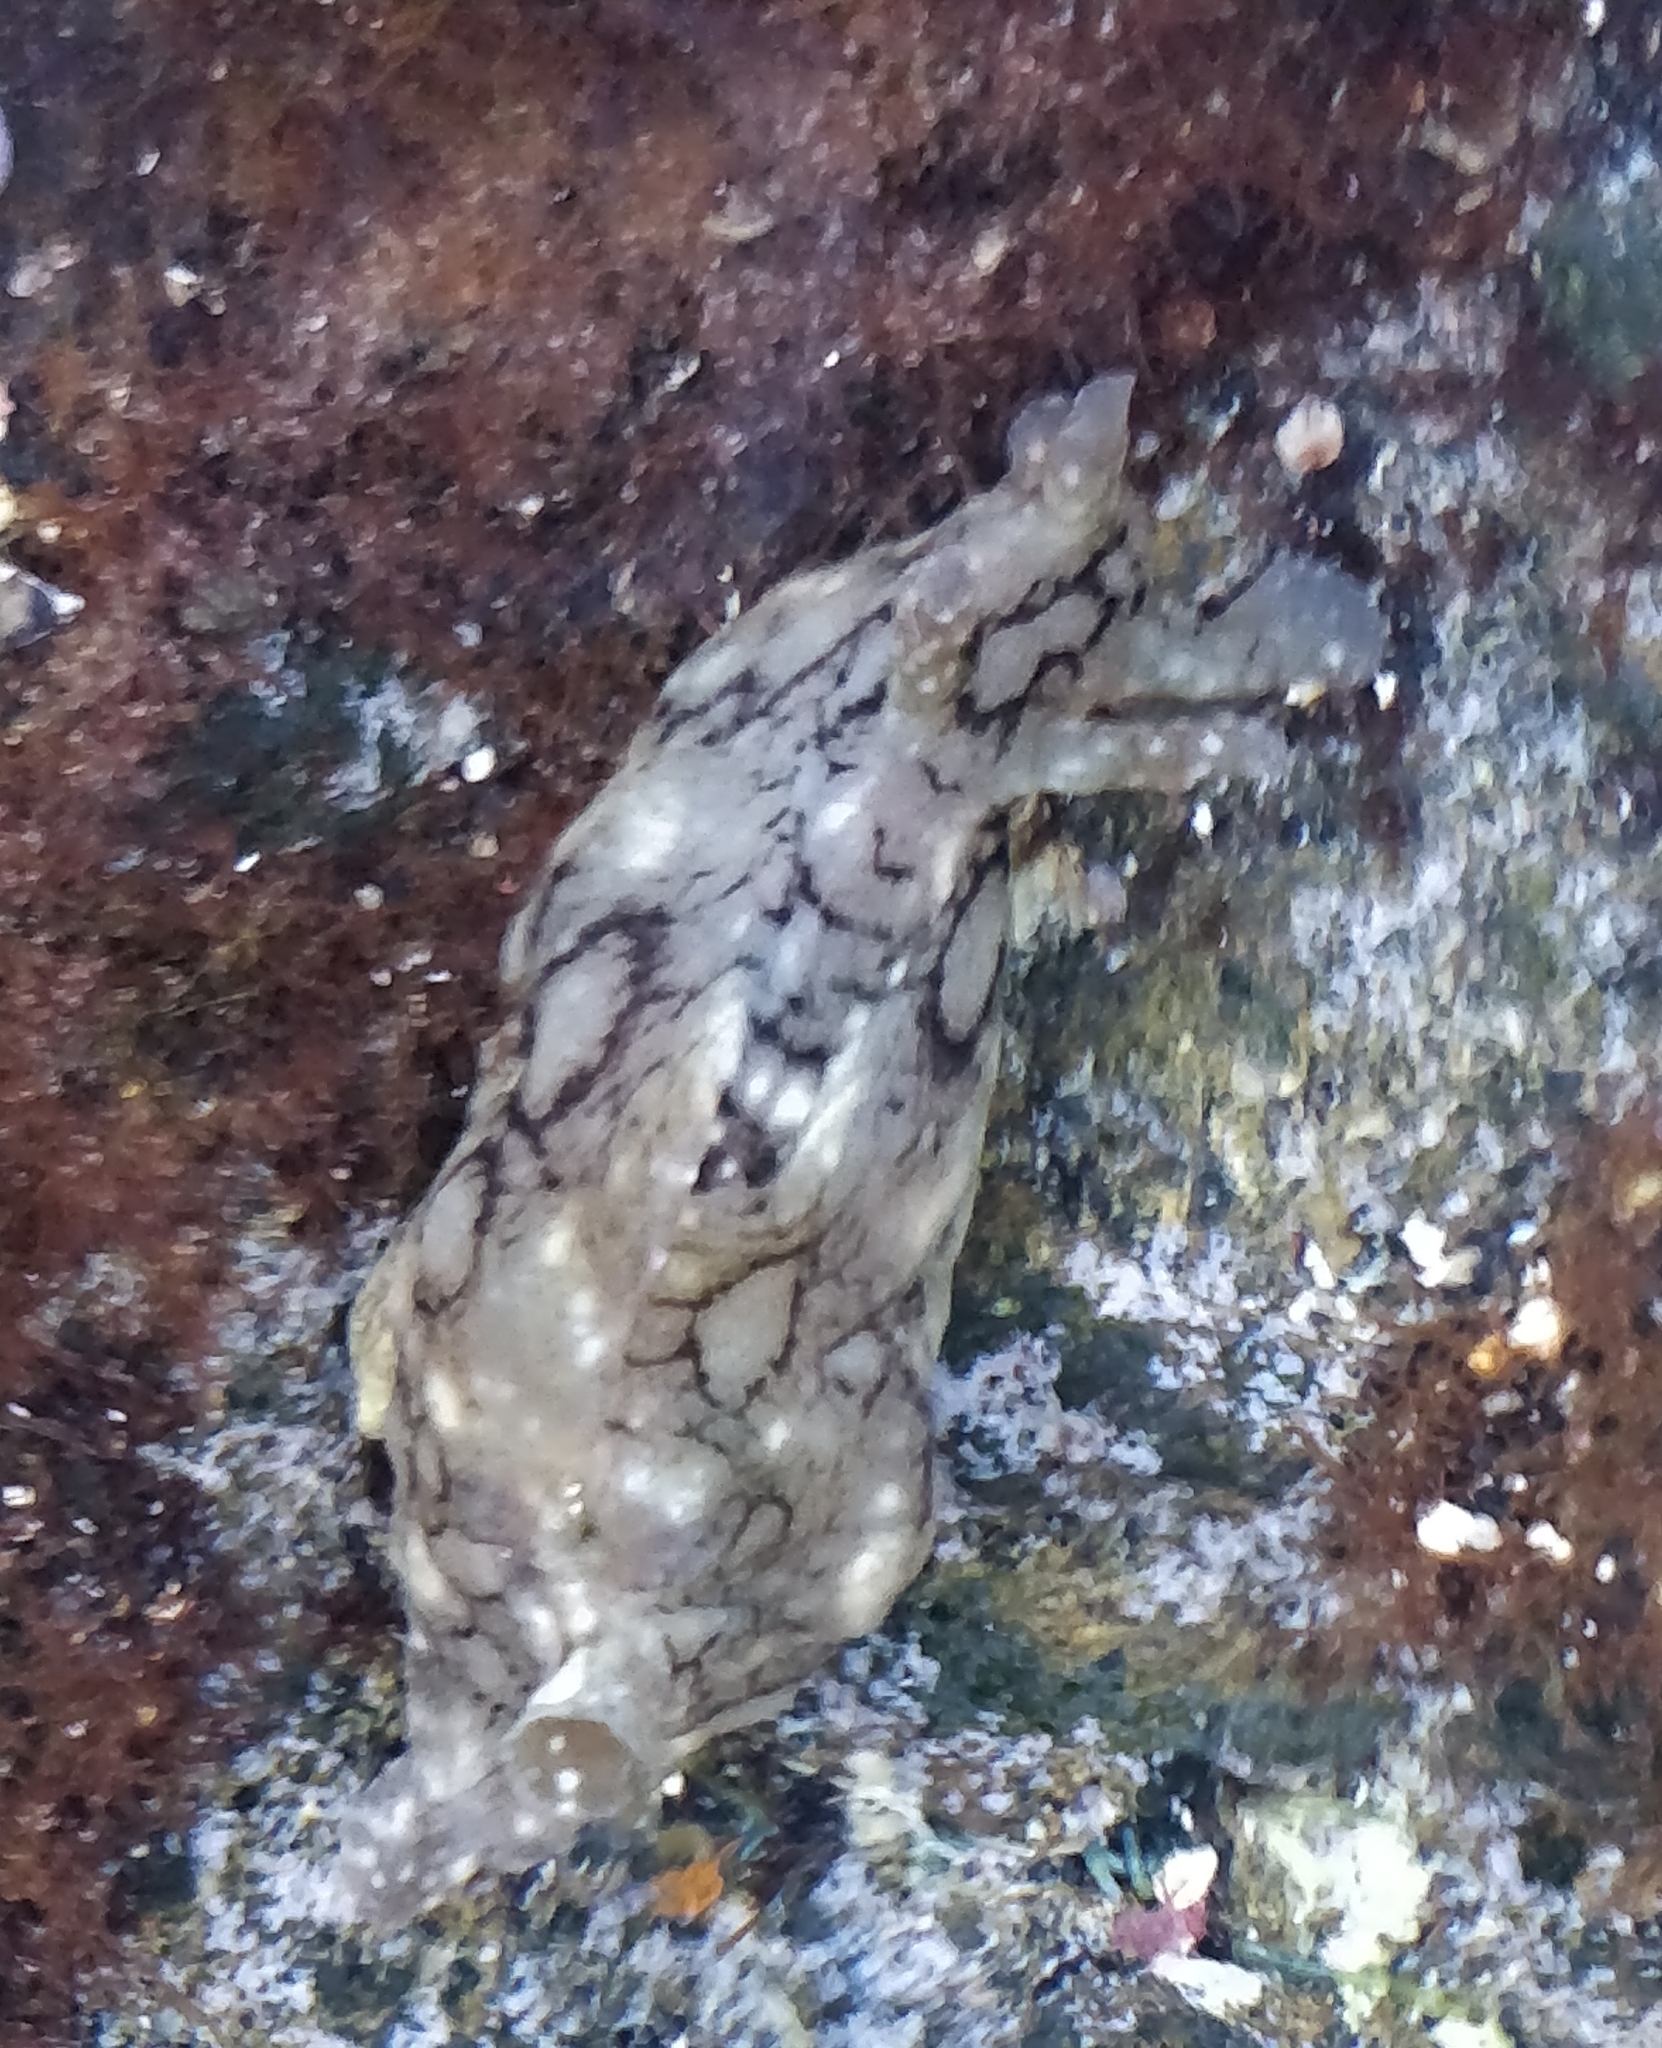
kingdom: Animalia
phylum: Mollusca
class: Gastropoda
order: Aplysiida
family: Aplysiidae
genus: Aplysia
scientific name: Aplysia dactylomela
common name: Large-spotted sea hare
